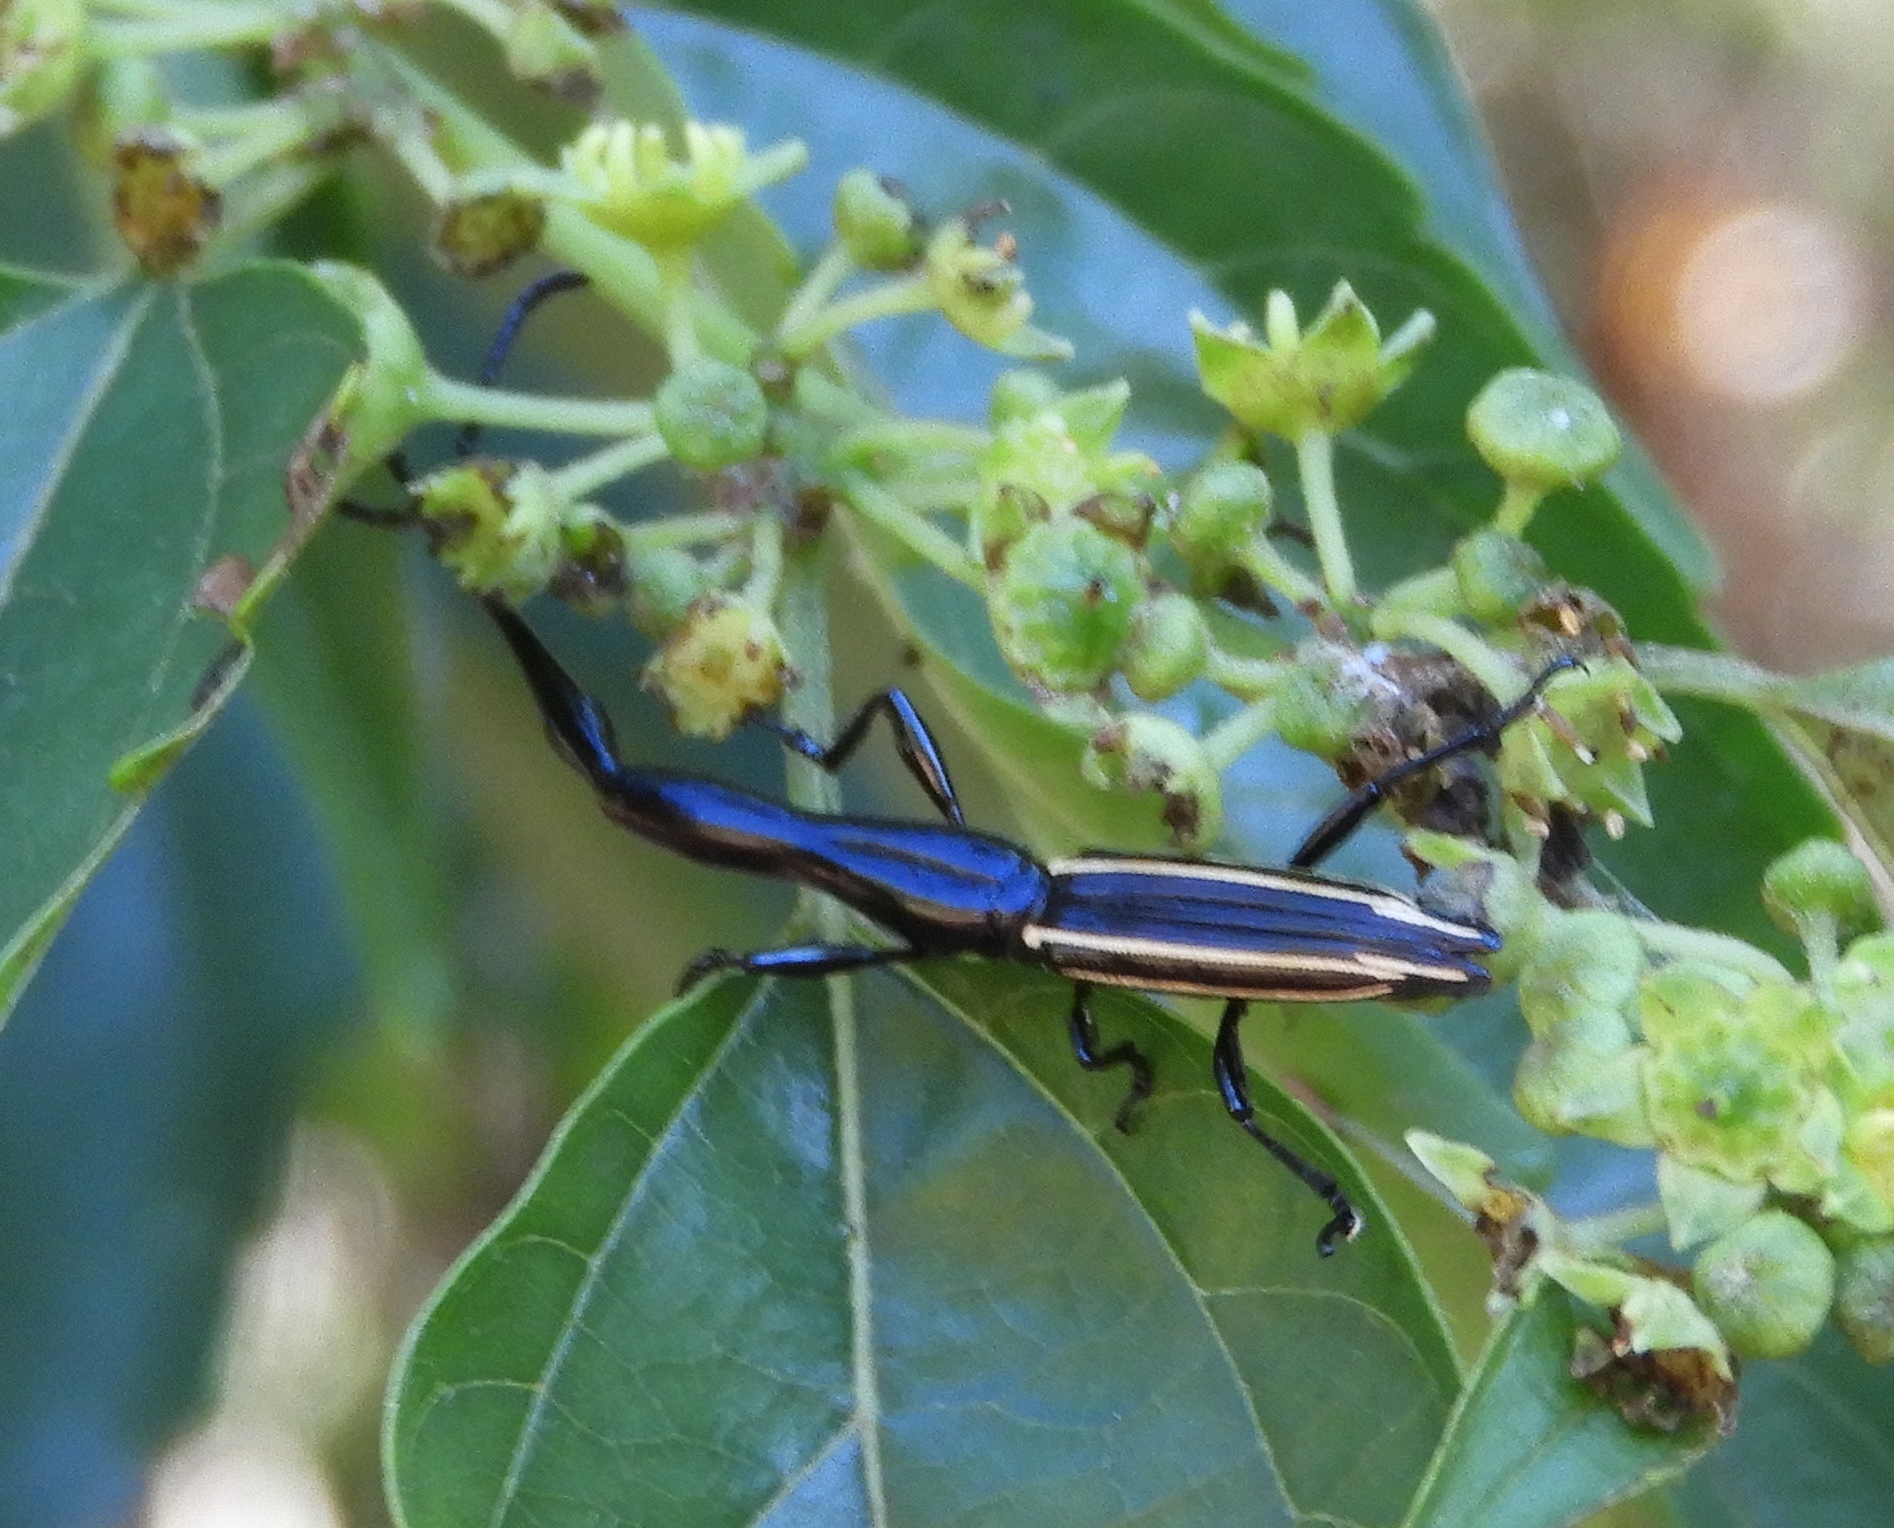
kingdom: Animalia
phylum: Arthropoda
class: Insecta
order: Coleoptera
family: Brentidae
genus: Brentus
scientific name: Brentus anchorago
